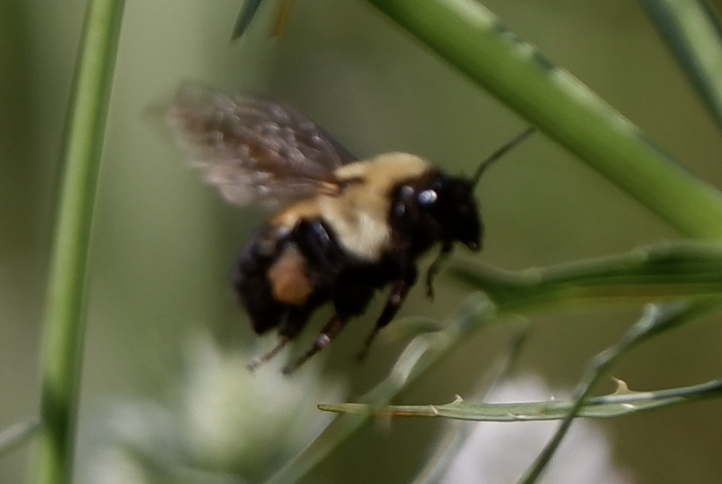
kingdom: Animalia
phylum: Arthropoda
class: Insecta
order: Hymenoptera
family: Apidae
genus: Bombus
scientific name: Bombus griseocollis
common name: Brown-belted bumble bee
